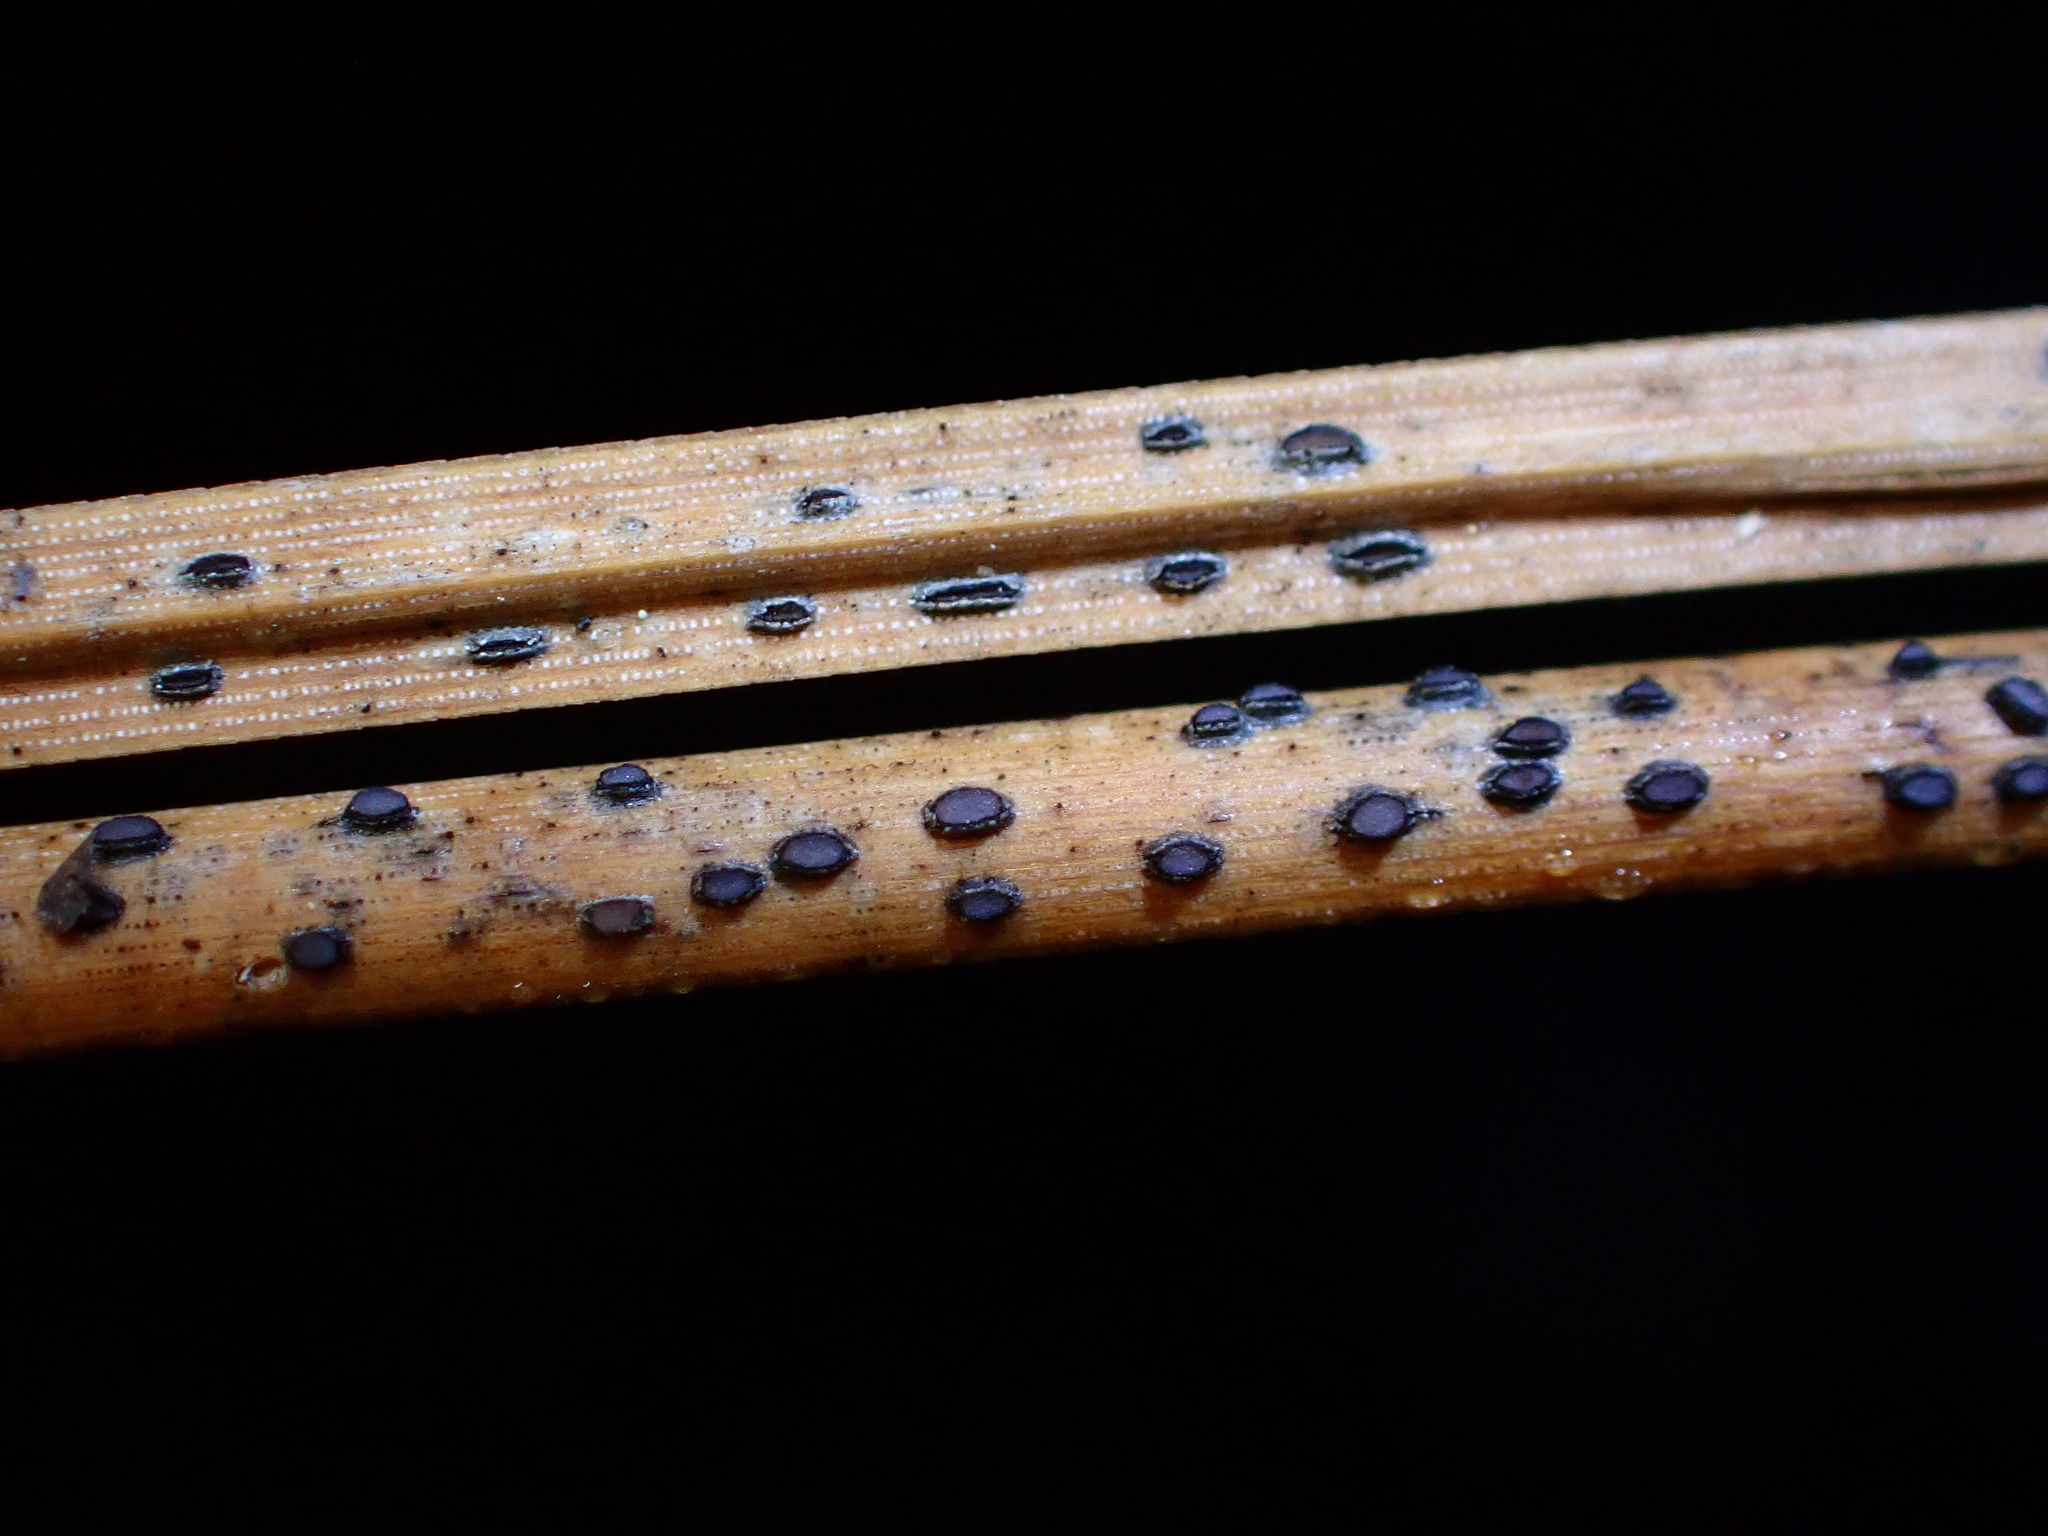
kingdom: Fungi
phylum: Ascomycota
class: Leotiomycetes
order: Rhytismatales
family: Rhytismataceae
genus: Lophodermium
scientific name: Lophodermium pinastri
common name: Pine needle split
